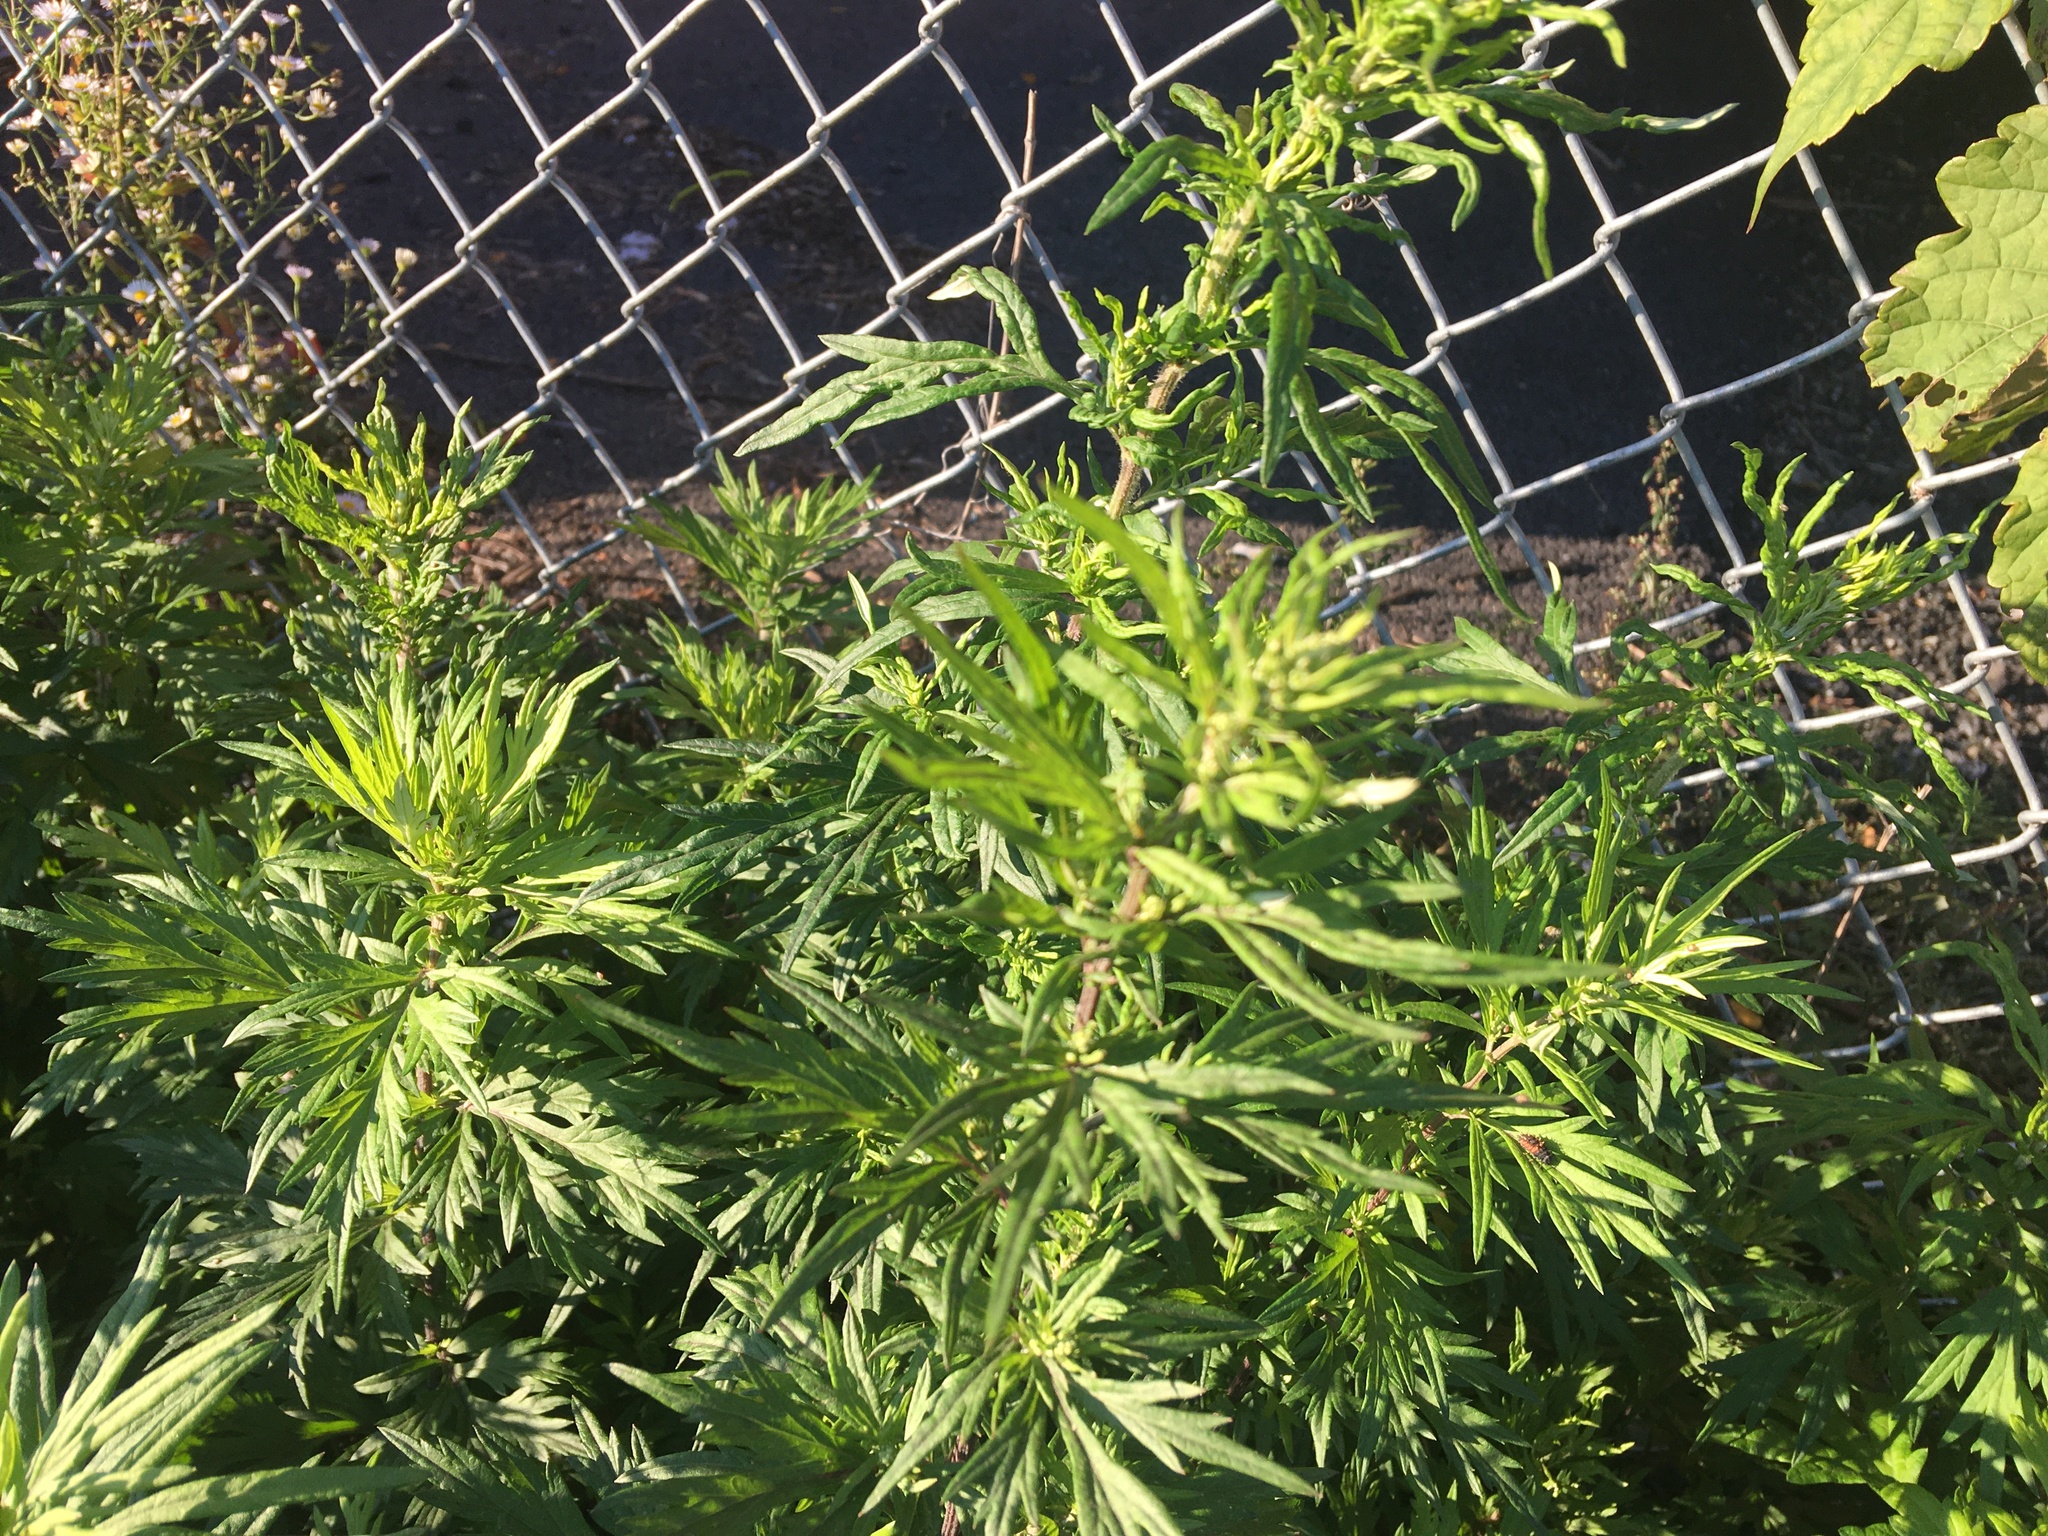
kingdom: Plantae
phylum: Tracheophyta
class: Magnoliopsida
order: Asterales
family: Asteraceae
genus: Artemisia
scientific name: Artemisia vulgaris
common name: Mugwort
